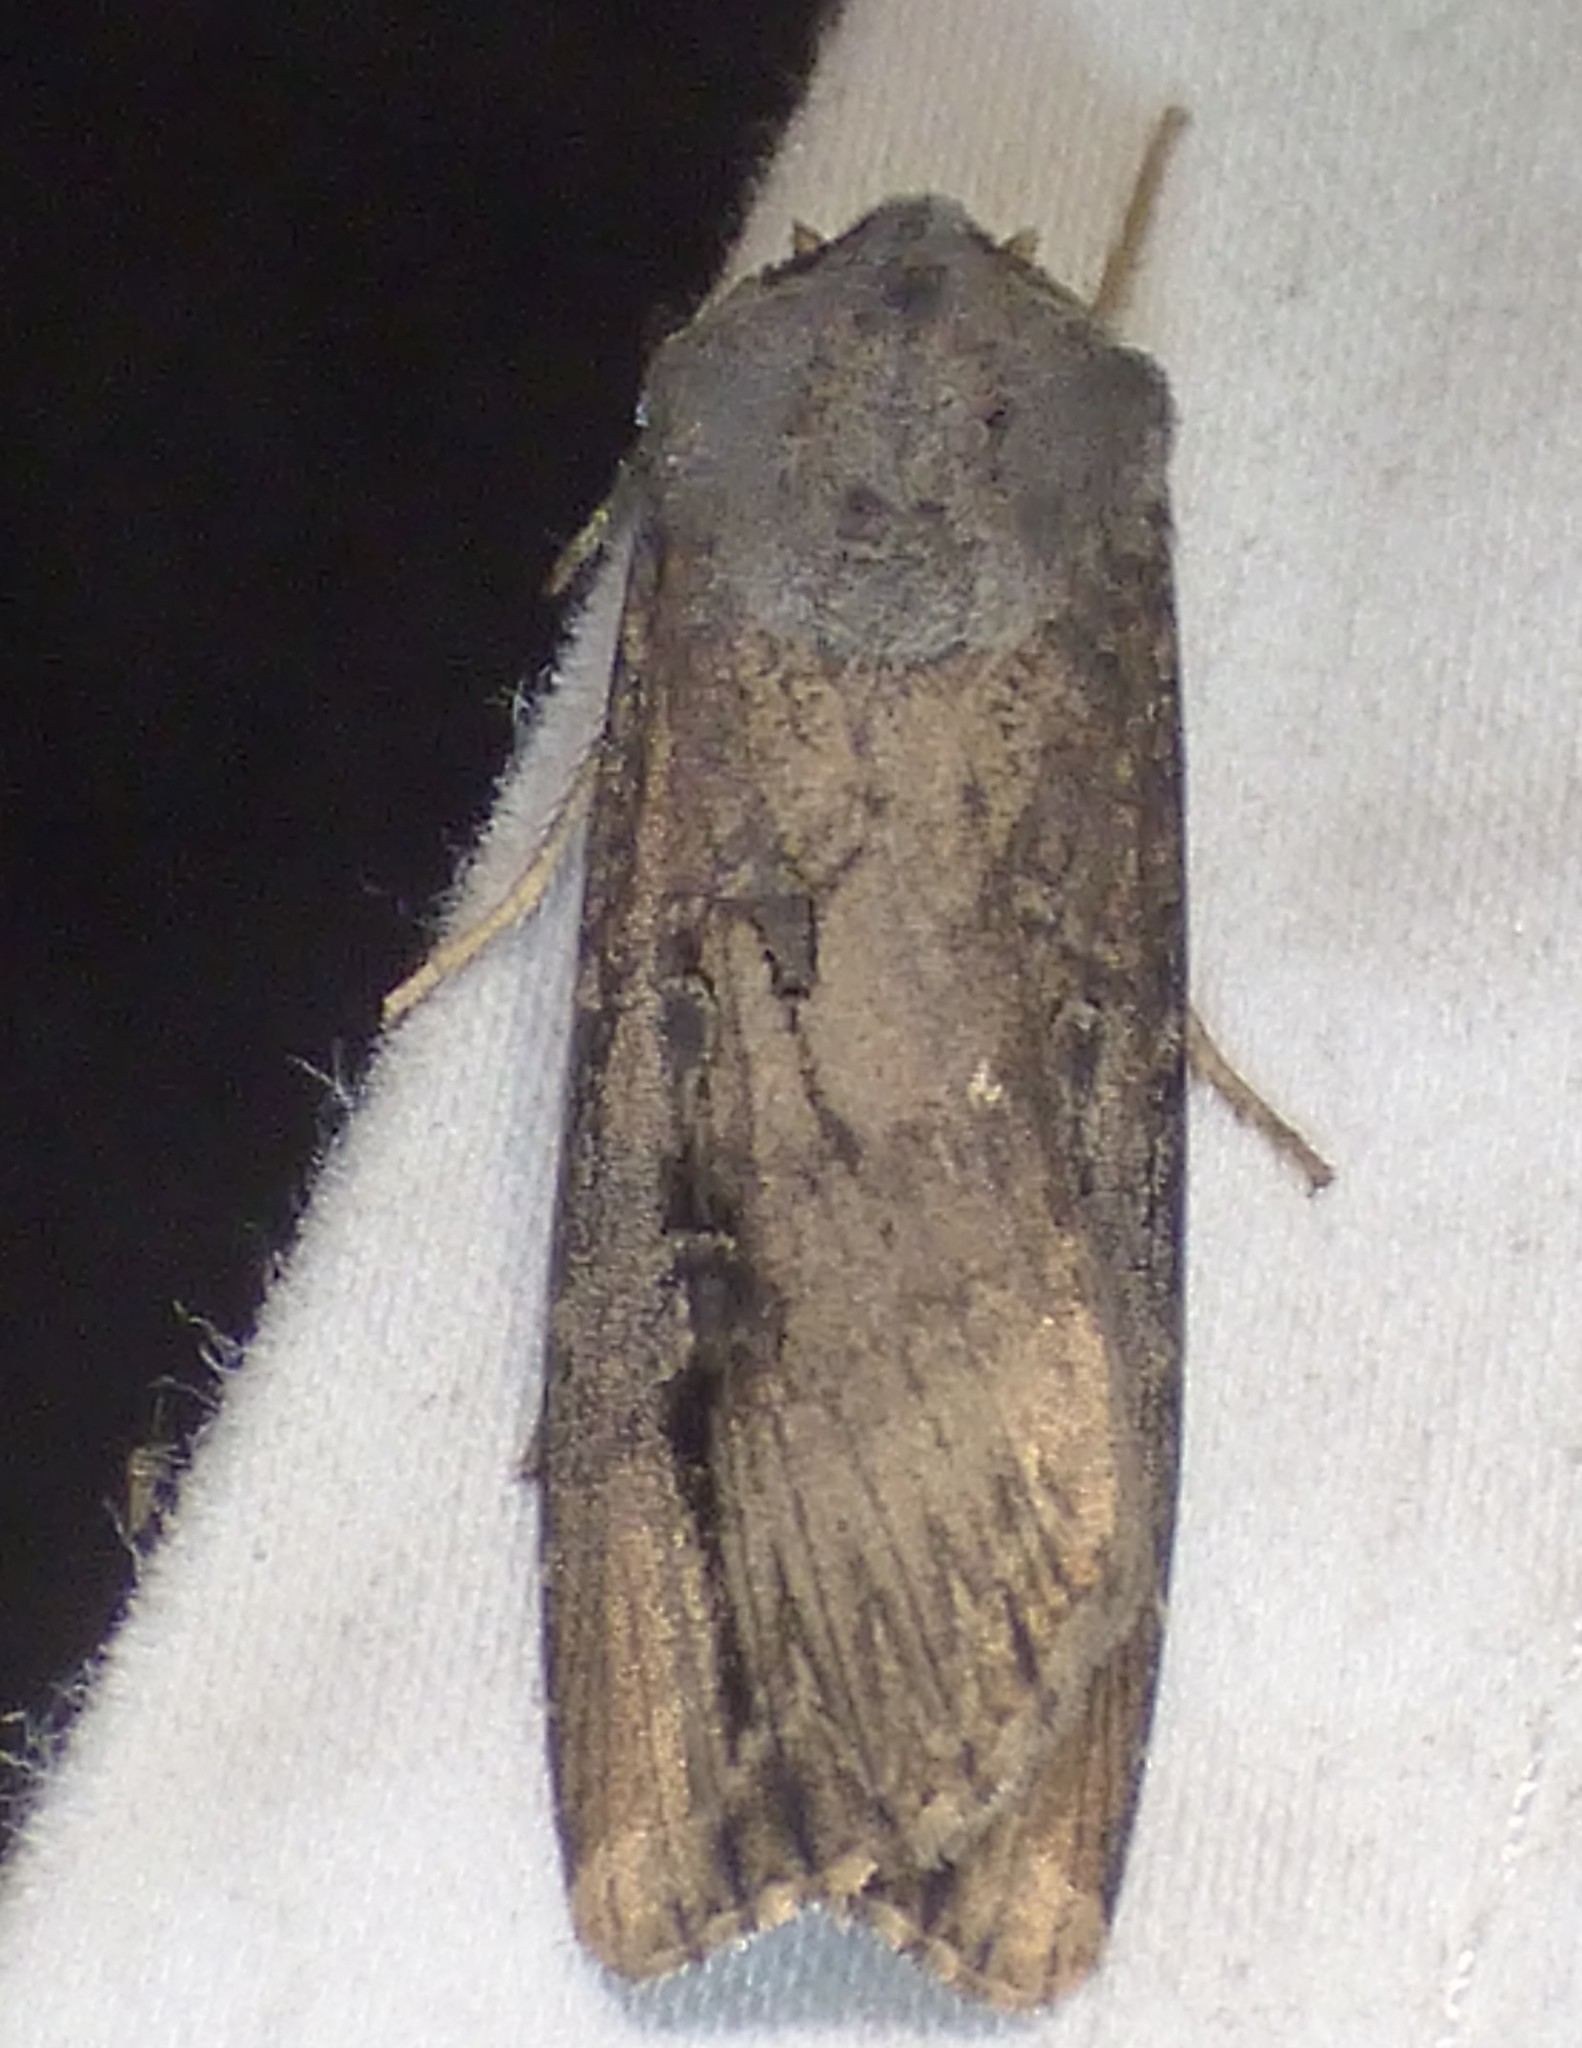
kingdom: Animalia
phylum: Arthropoda
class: Insecta
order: Lepidoptera
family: Noctuidae
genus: Agrotis
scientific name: Agrotis ipsilon
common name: Dark sword-grass
